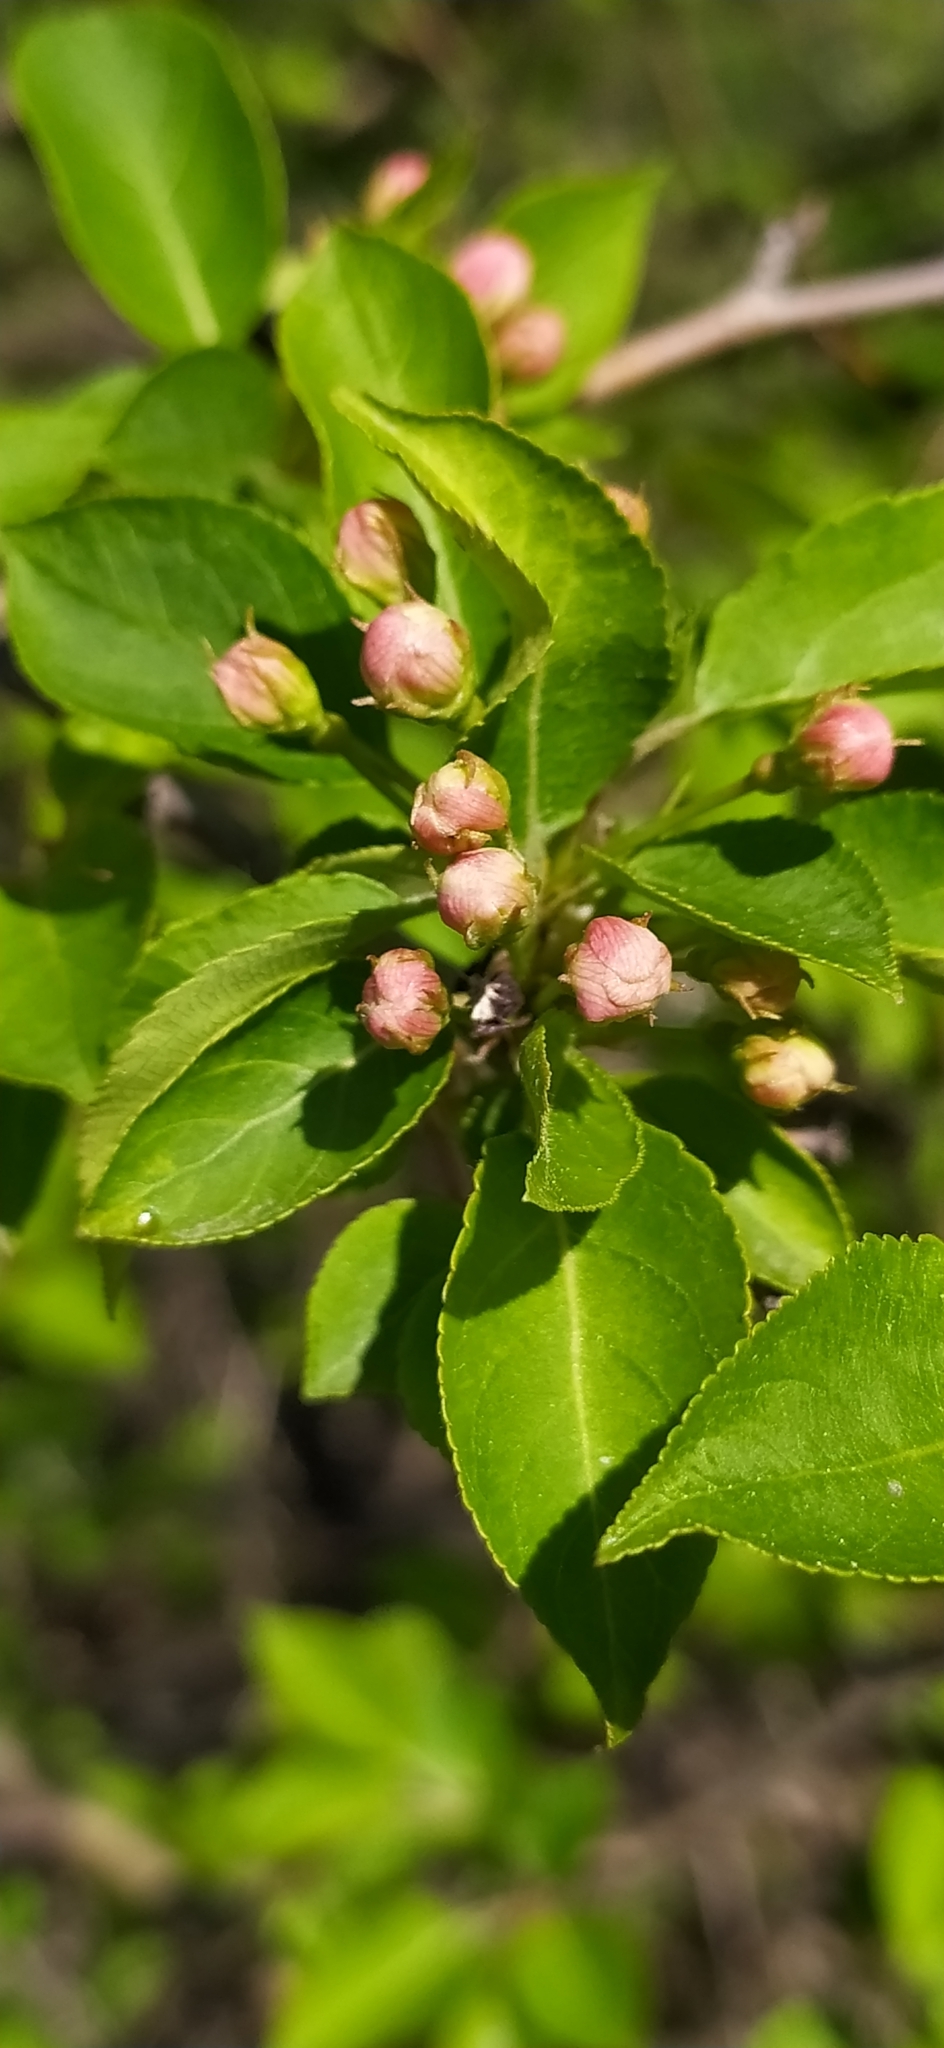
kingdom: Plantae
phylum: Tracheophyta
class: Magnoliopsida
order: Rosales
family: Rosaceae
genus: Malus
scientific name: Malus baccata
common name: Siberian crab
